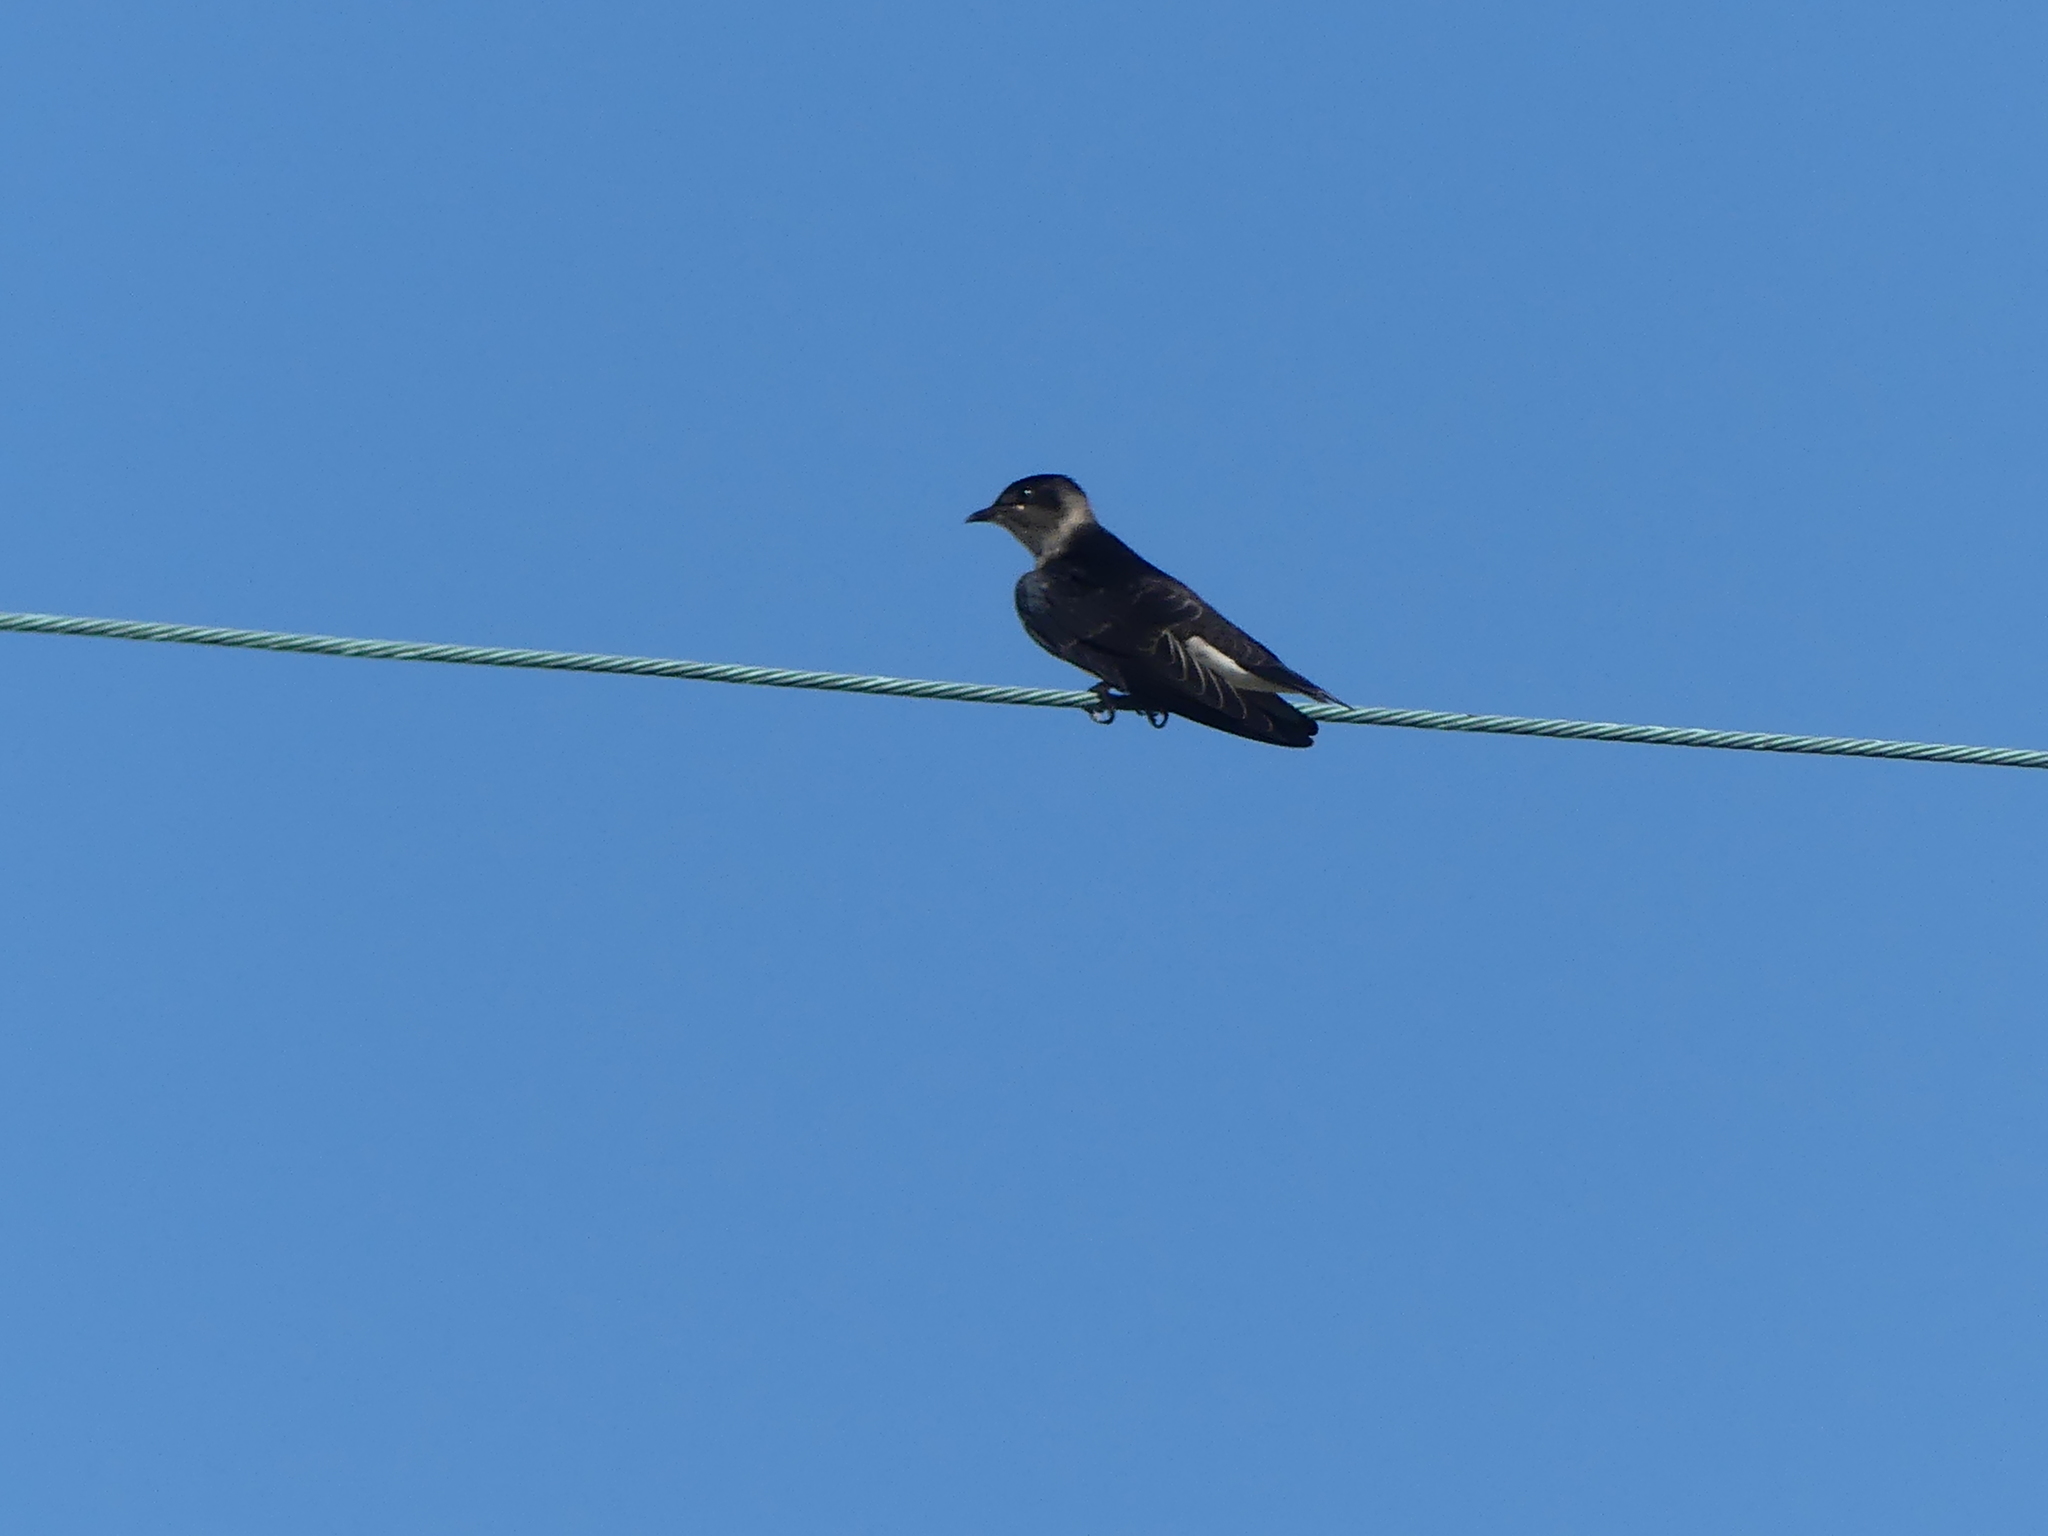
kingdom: Animalia
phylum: Chordata
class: Aves
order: Passeriformes
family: Hirundinidae
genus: Progne
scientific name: Progne subis
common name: Purple martin
